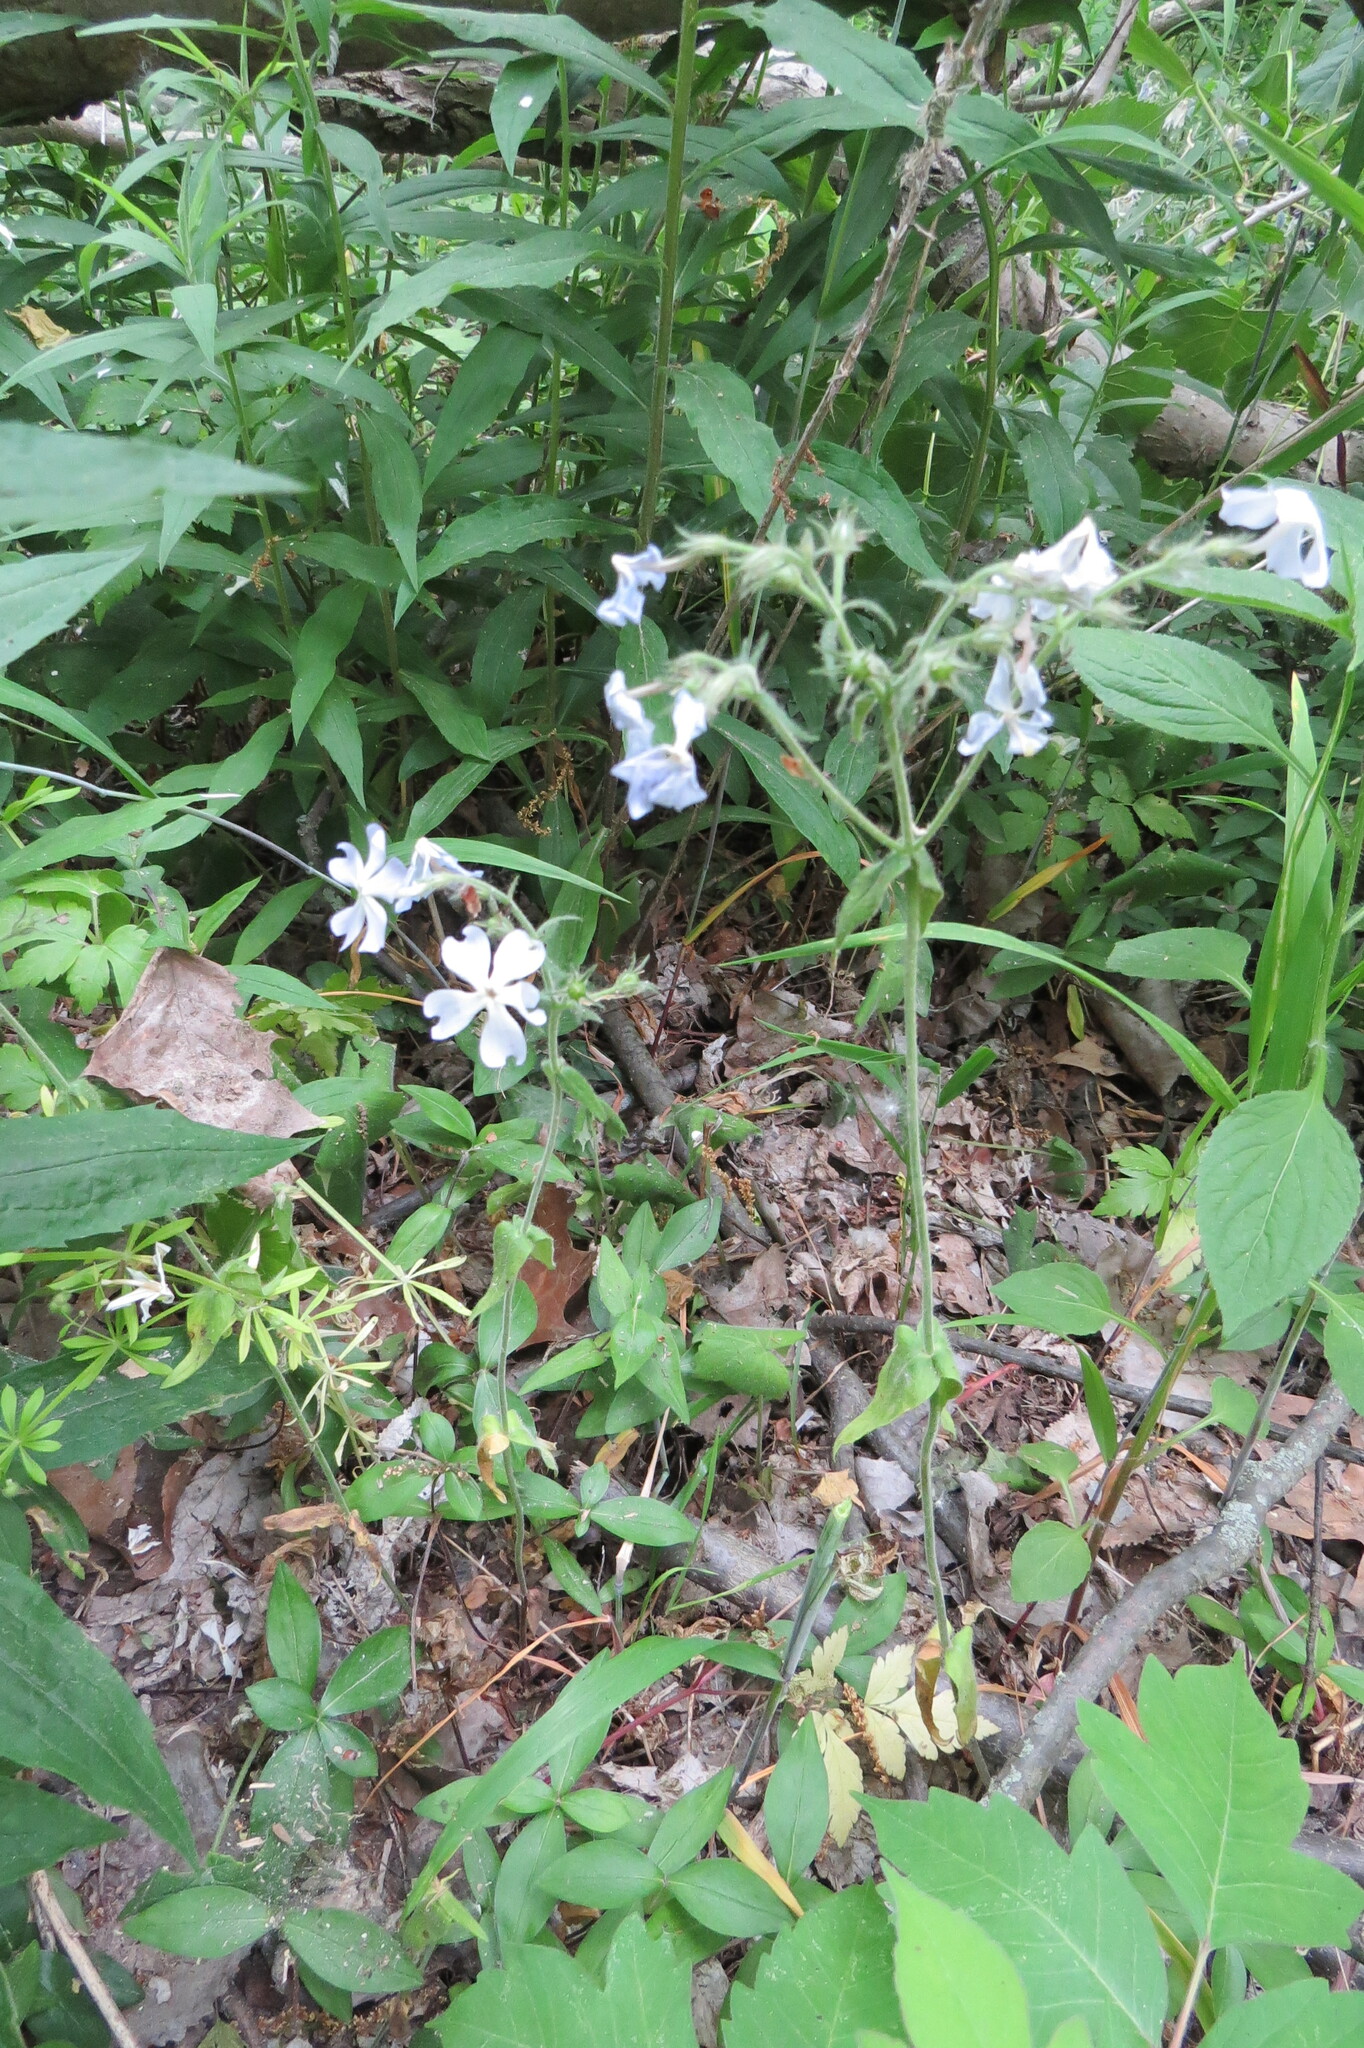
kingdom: Plantae
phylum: Tracheophyta
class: Magnoliopsida
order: Ericales
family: Polemoniaceae
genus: Phlox
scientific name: Phlox divaricata
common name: Blue phlox
